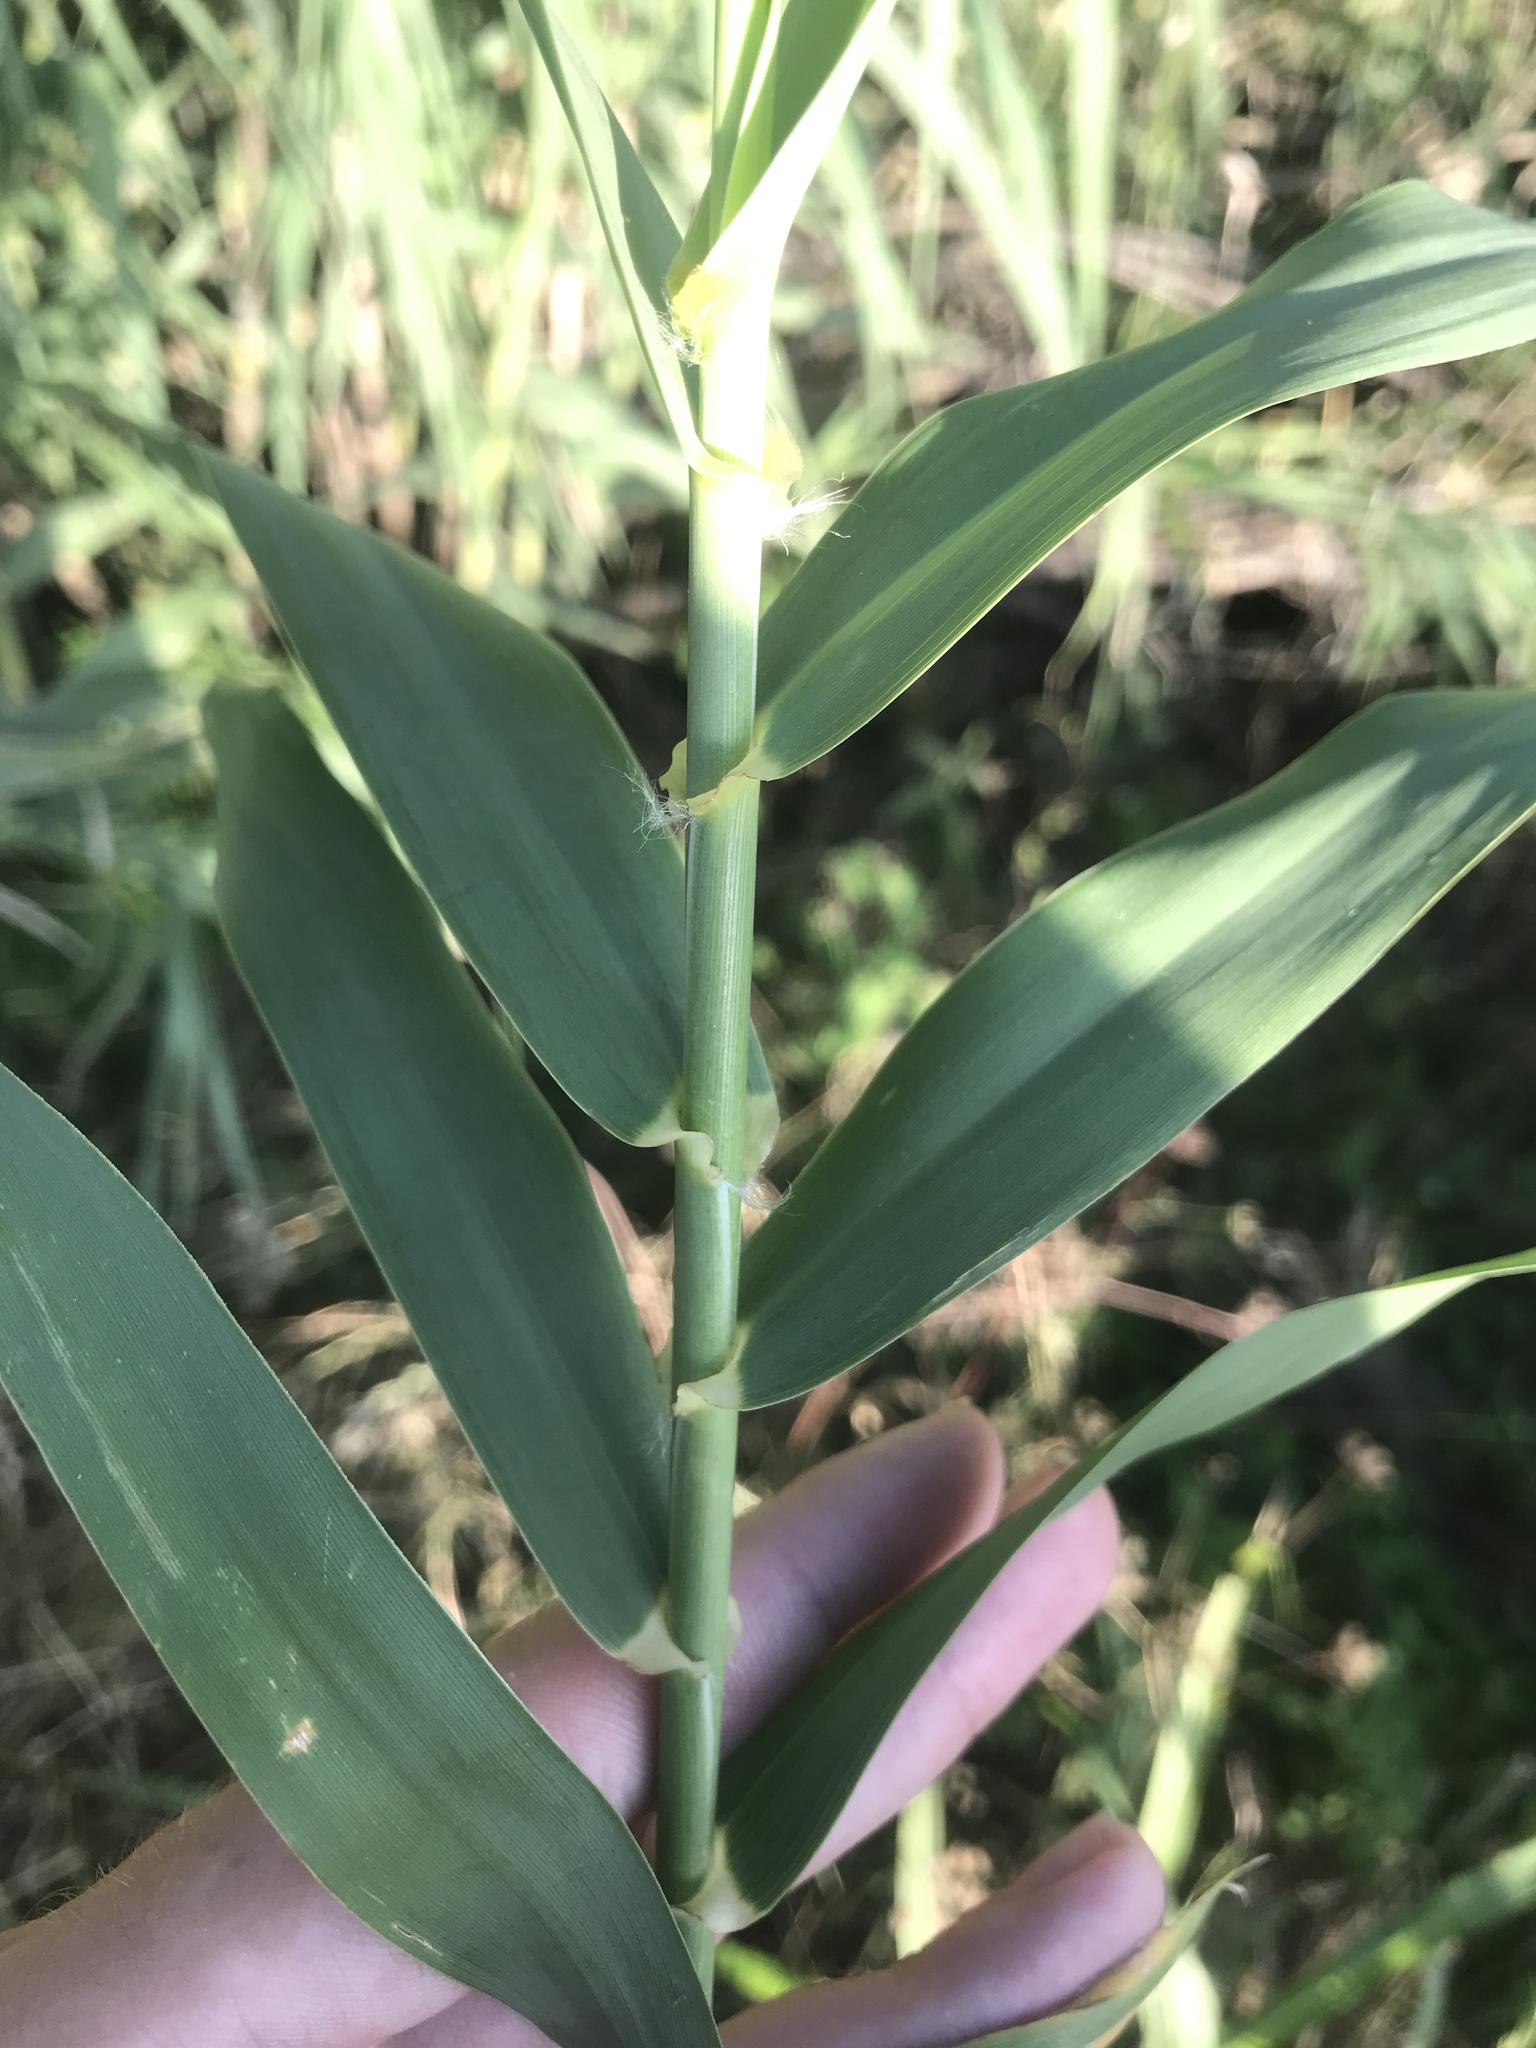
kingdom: Plantae
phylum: Tracheophyta
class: Liliopsida
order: Poales
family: Poaceae
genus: Arundo
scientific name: Arundo donax
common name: Giant reed
